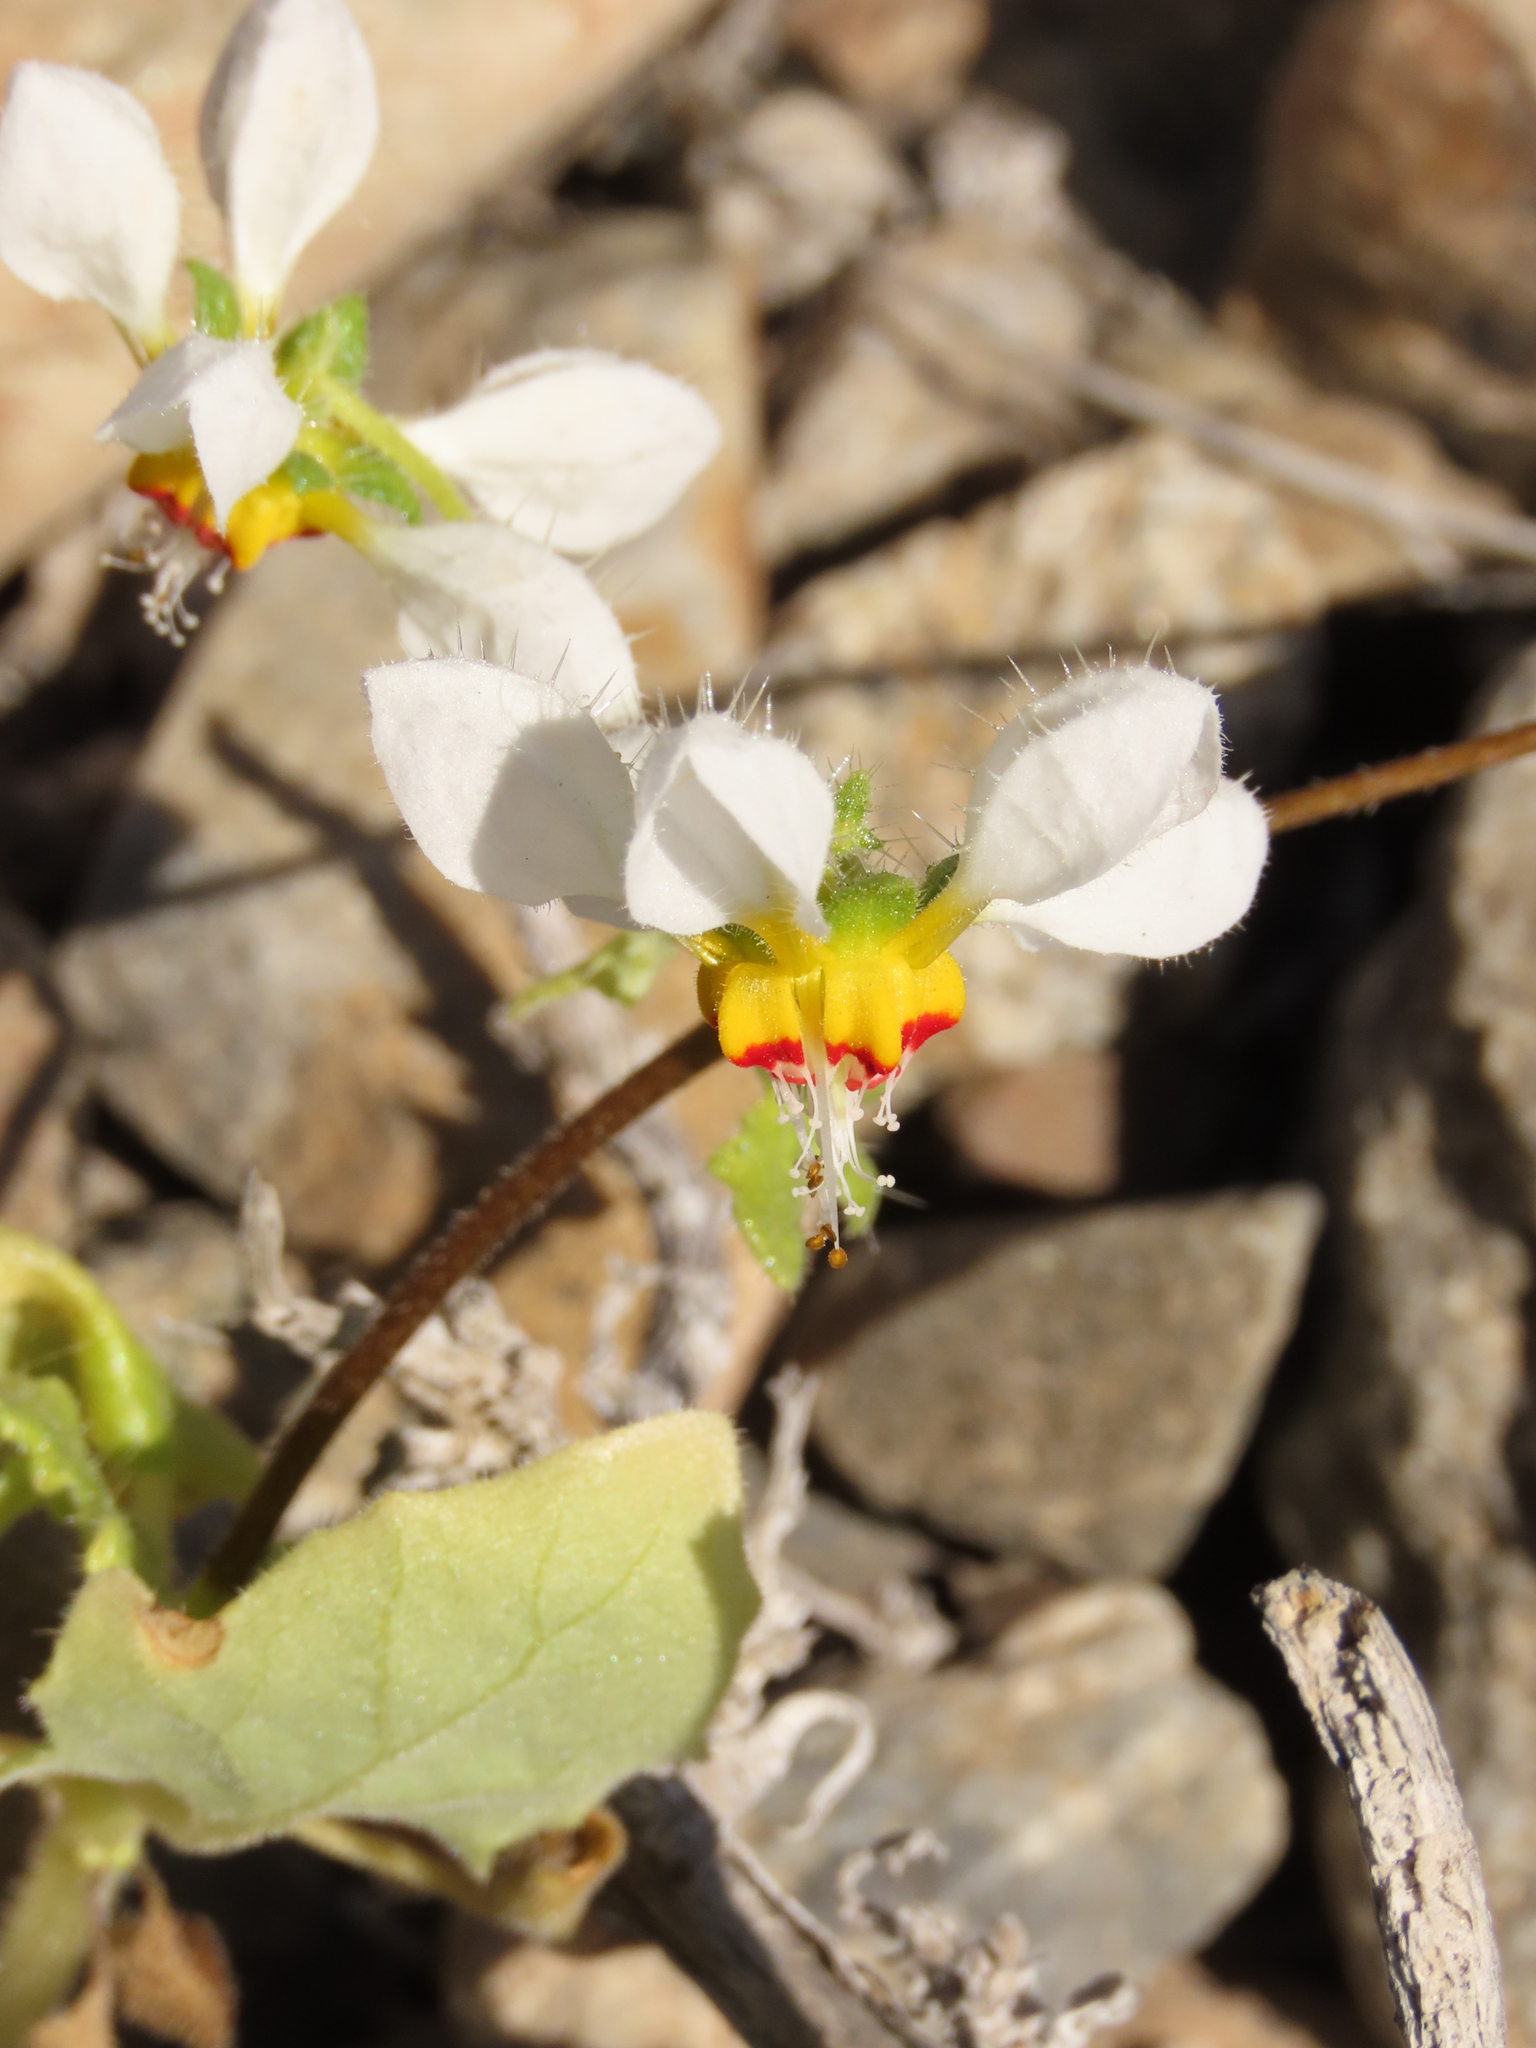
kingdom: Plantae
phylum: Tracheophyta
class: Magnoliopsida
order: Cornales
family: Loasaceae
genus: Loasa
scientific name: Loasa elongata
